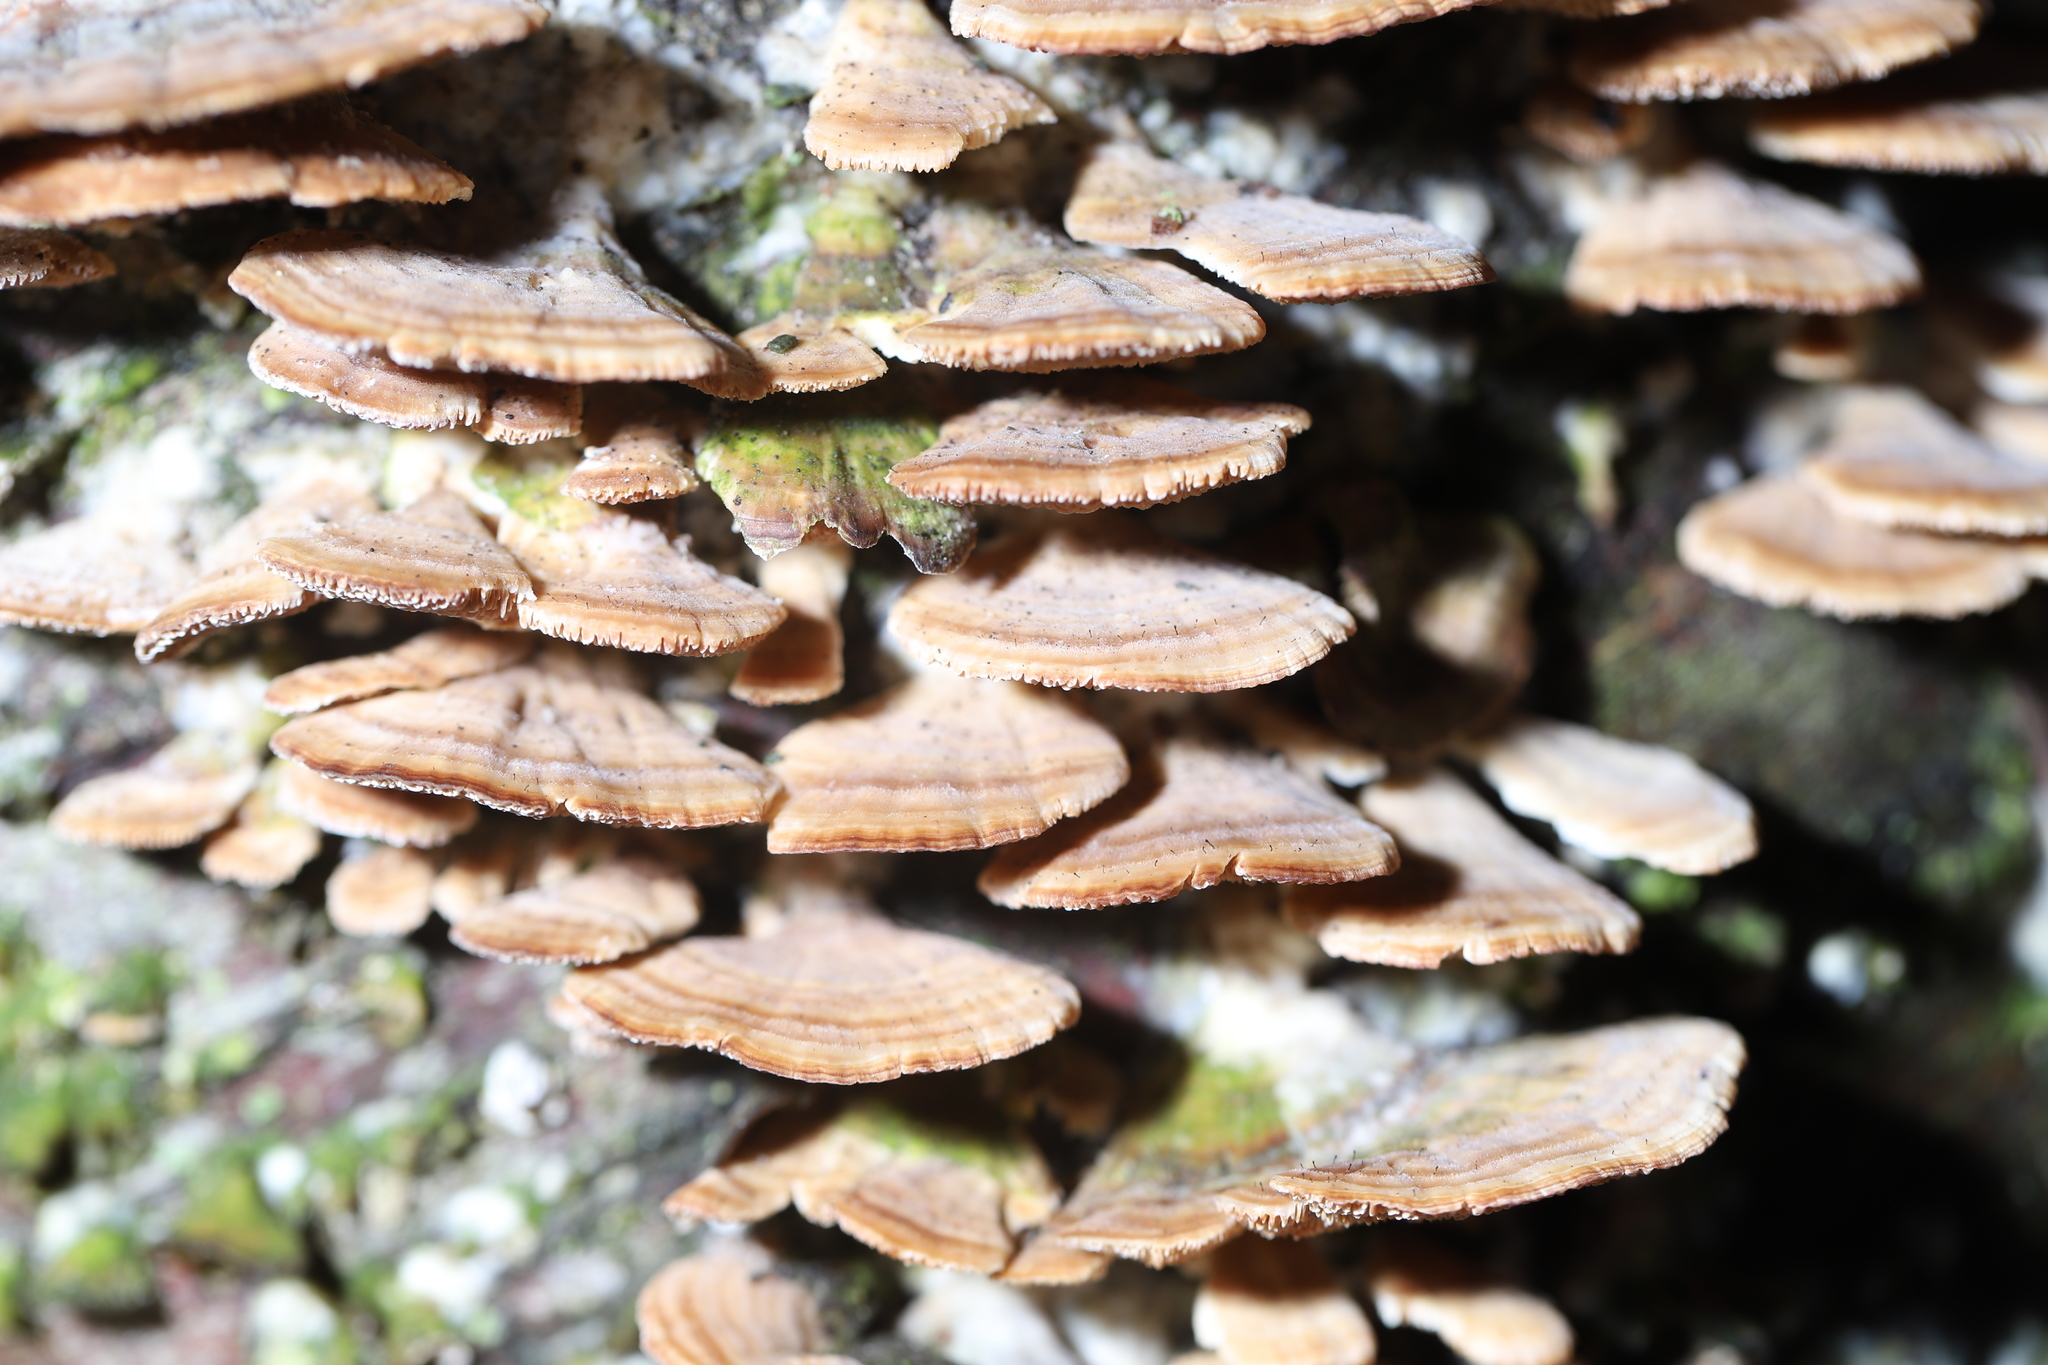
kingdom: Fungi
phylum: Ascomycota
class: Eurotiomycetes
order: Mycocaliciales
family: Mycocaliciaceae
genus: Phaeocalicium
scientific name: Phaeocalicium polyporaeum
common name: Fairy pins
